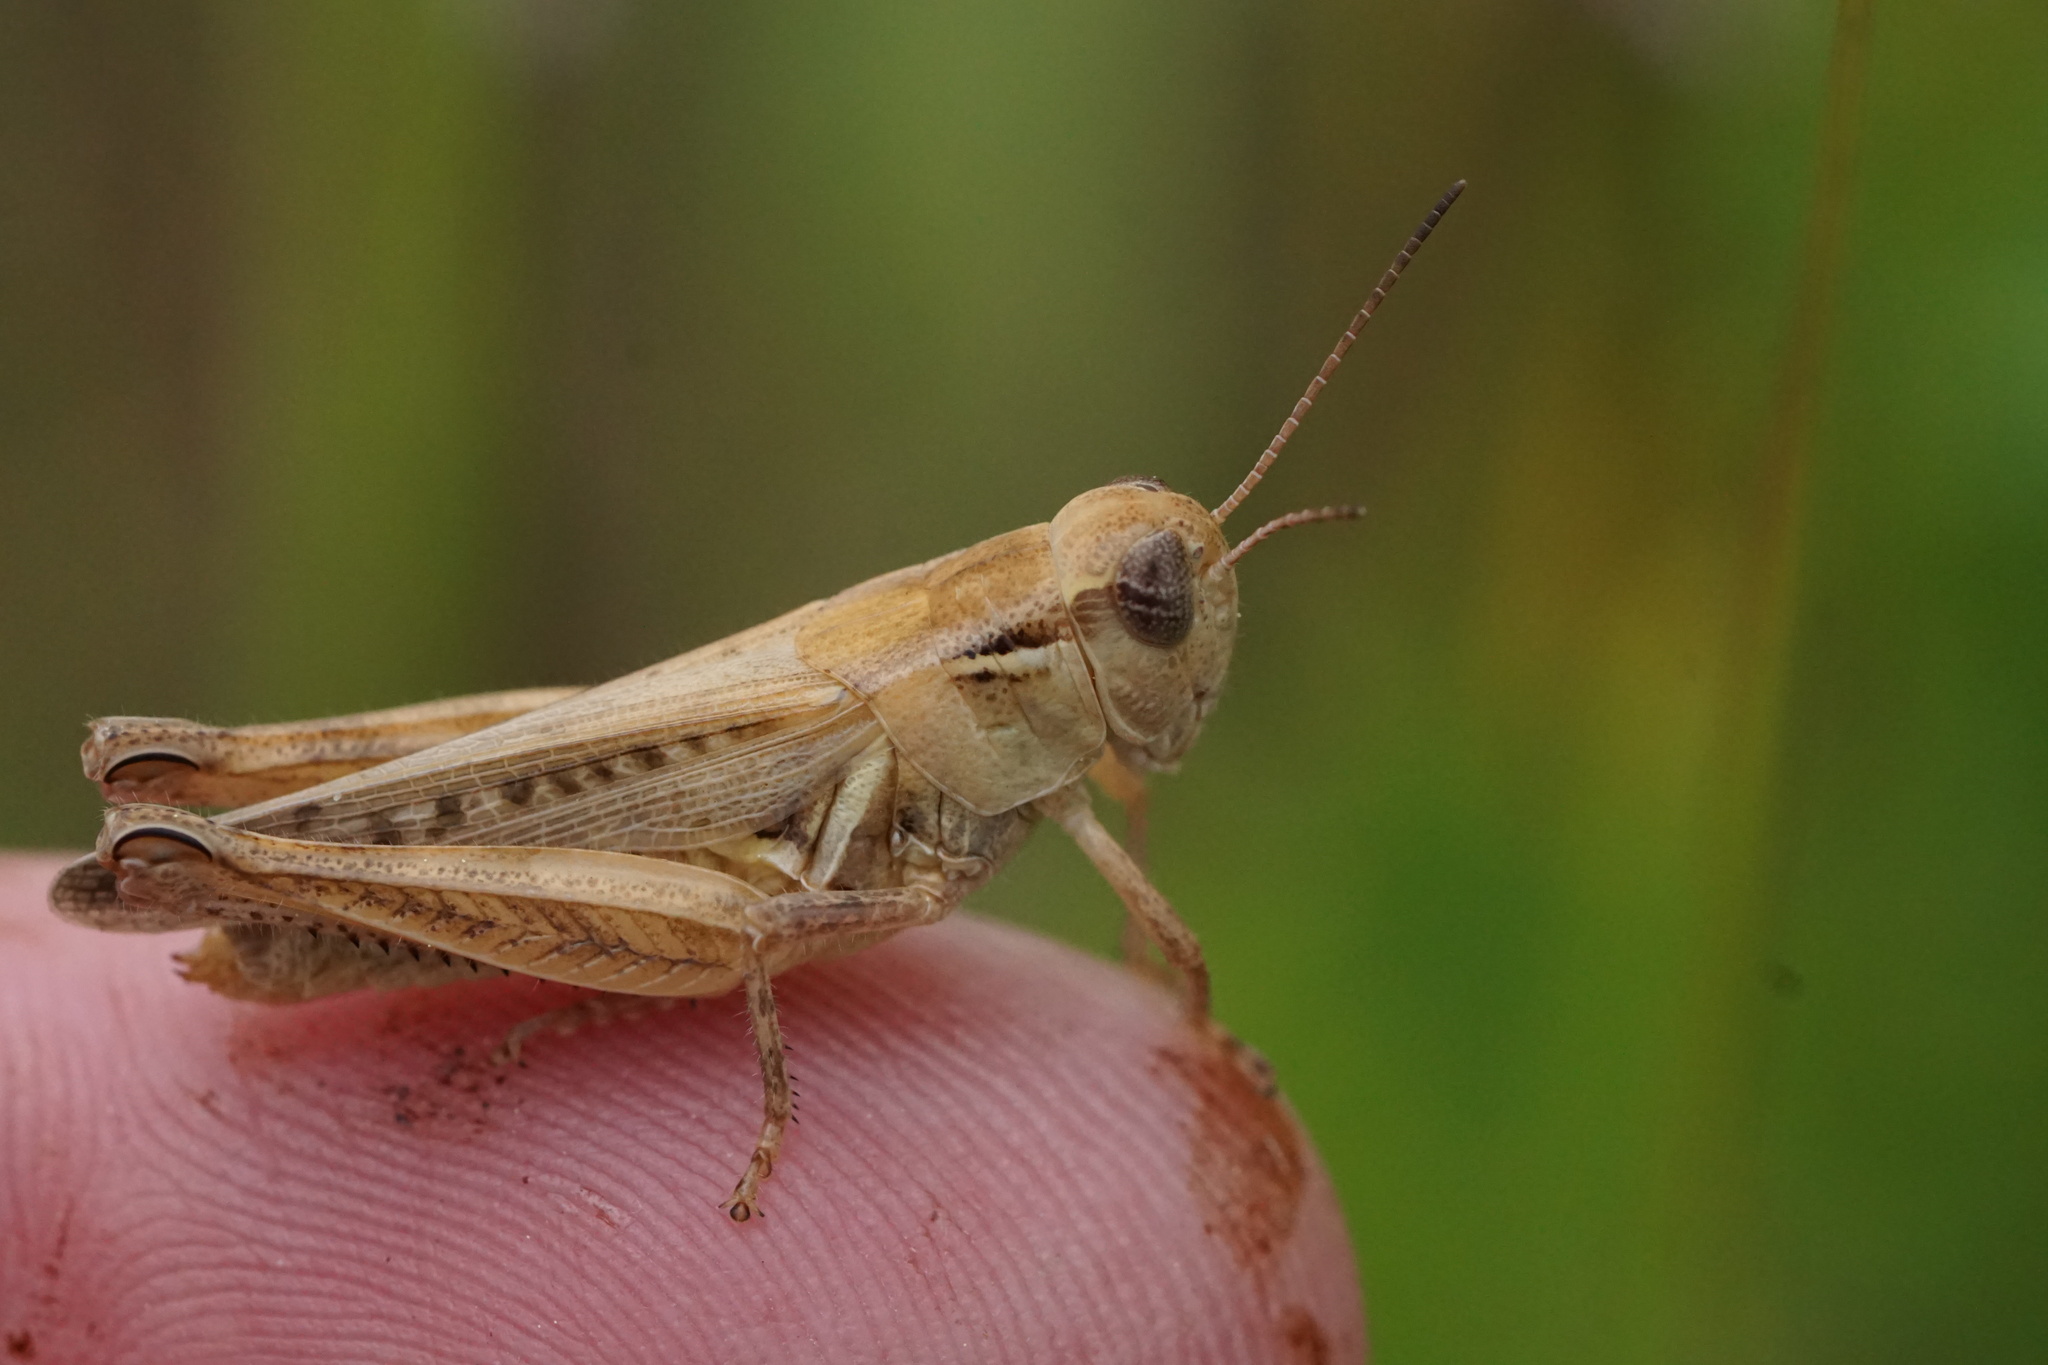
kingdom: Animalia
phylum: Arthropoda
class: Insecta
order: Orthoptera
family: Acrididae
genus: Melanoplus
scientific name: Melanoplus confusus
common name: Little pasture locust
